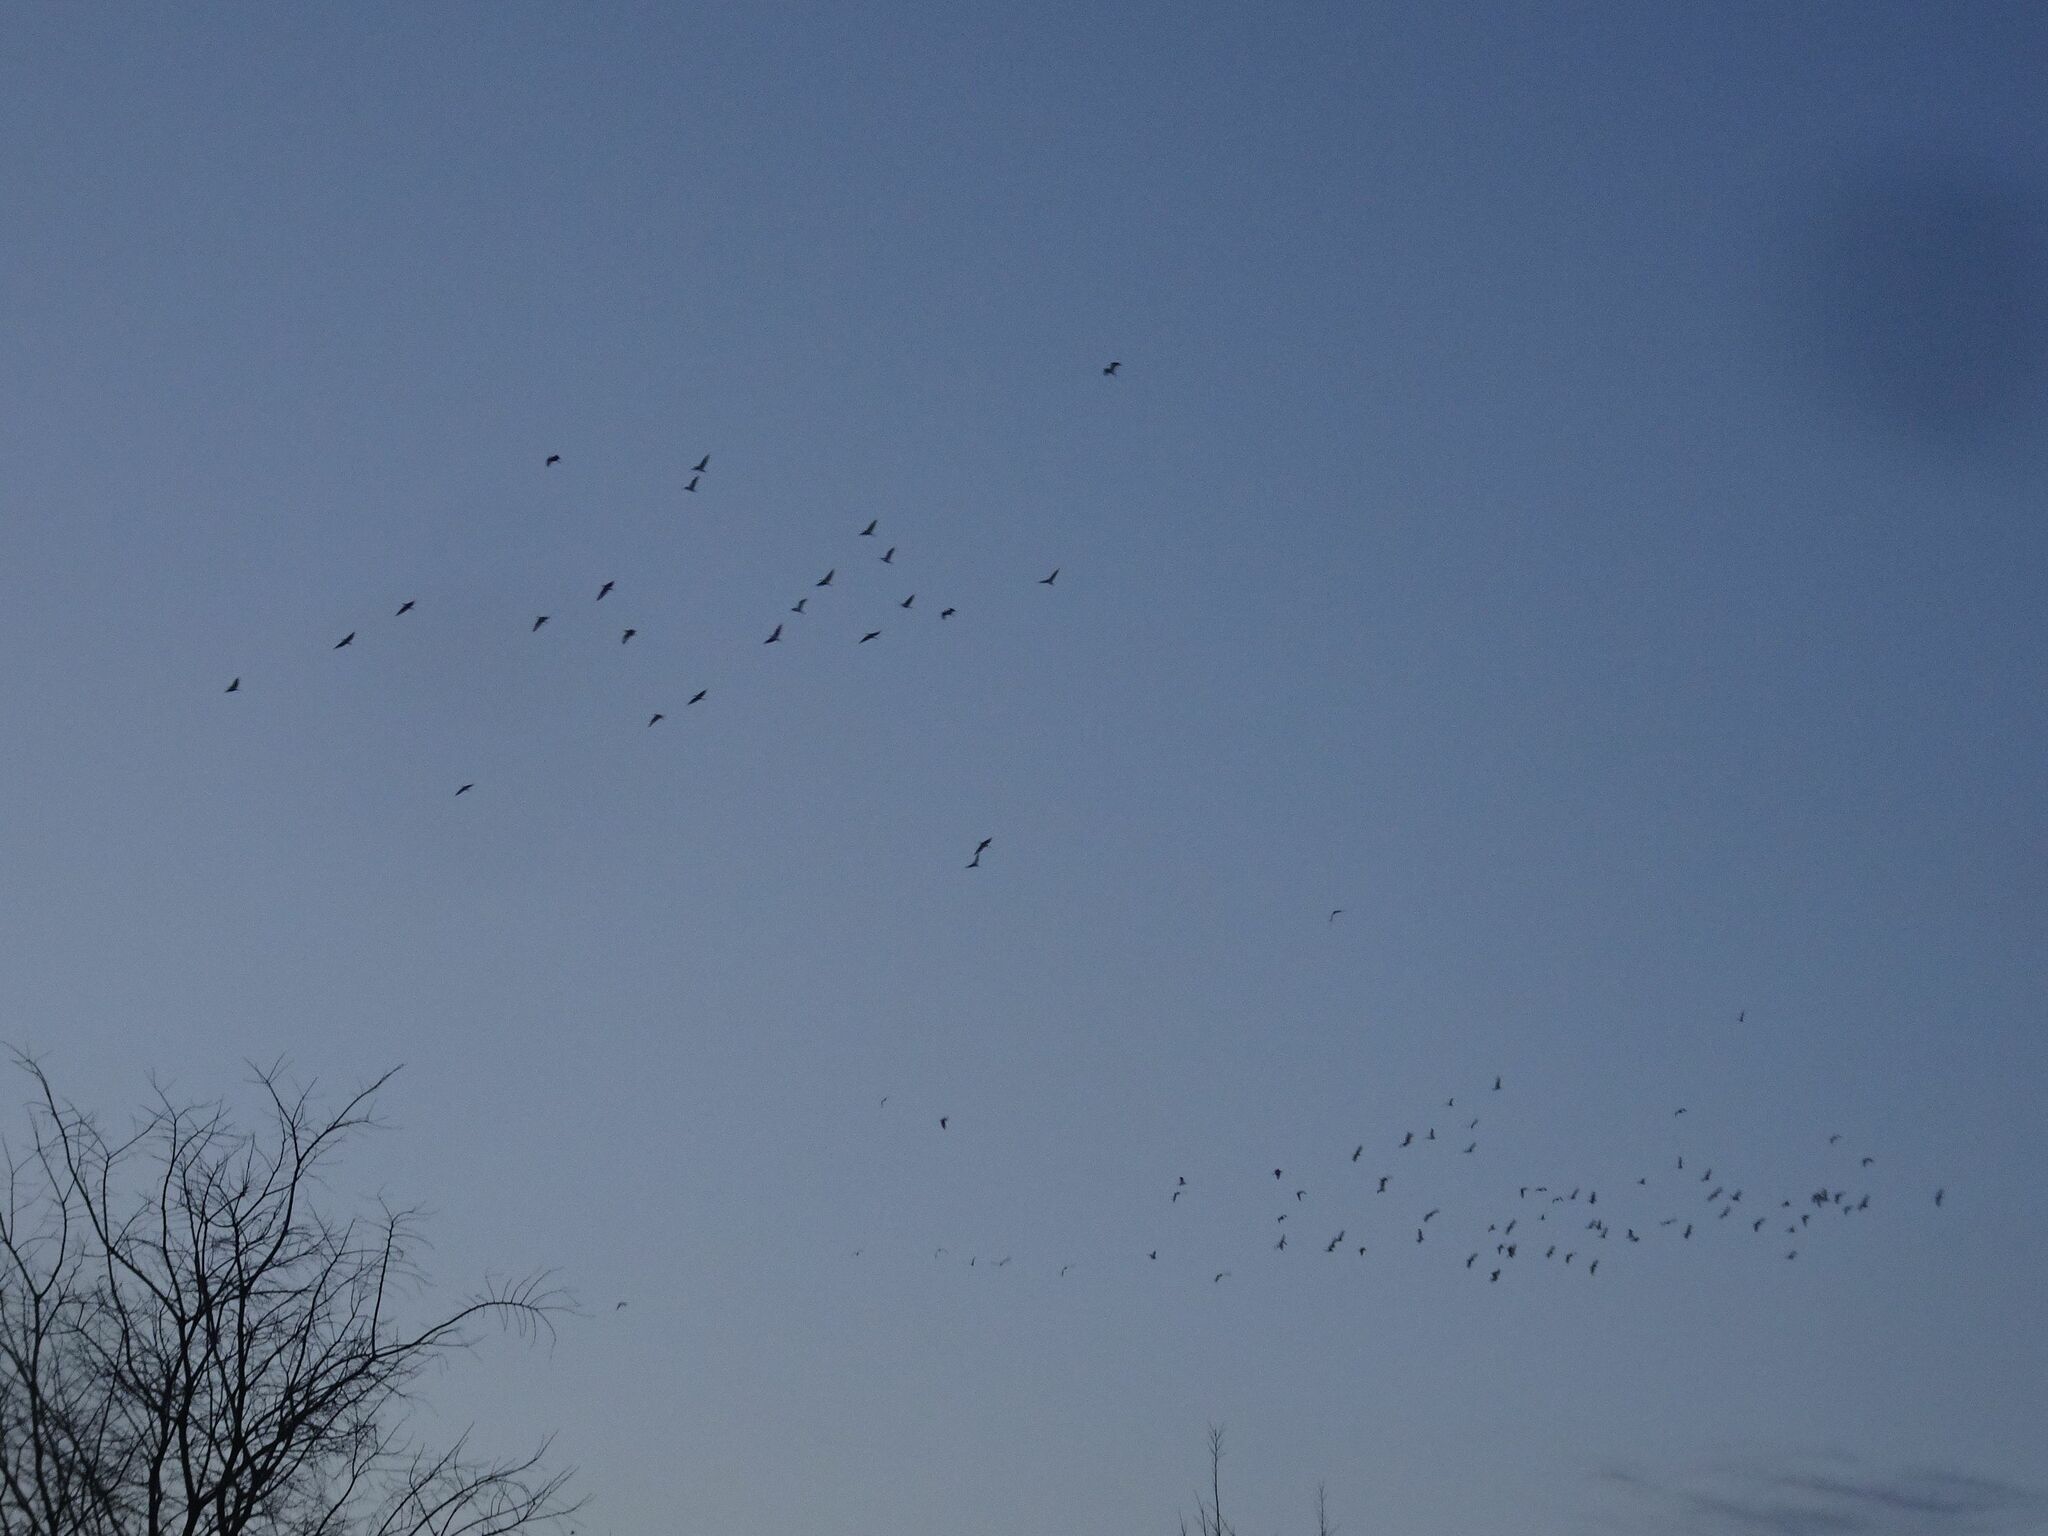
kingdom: Animalia
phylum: Chordata
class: Aves
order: Pelecaniformes
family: Ardeidae
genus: Bubulcus
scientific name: Bubulcus ibis
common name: Cattle egret
